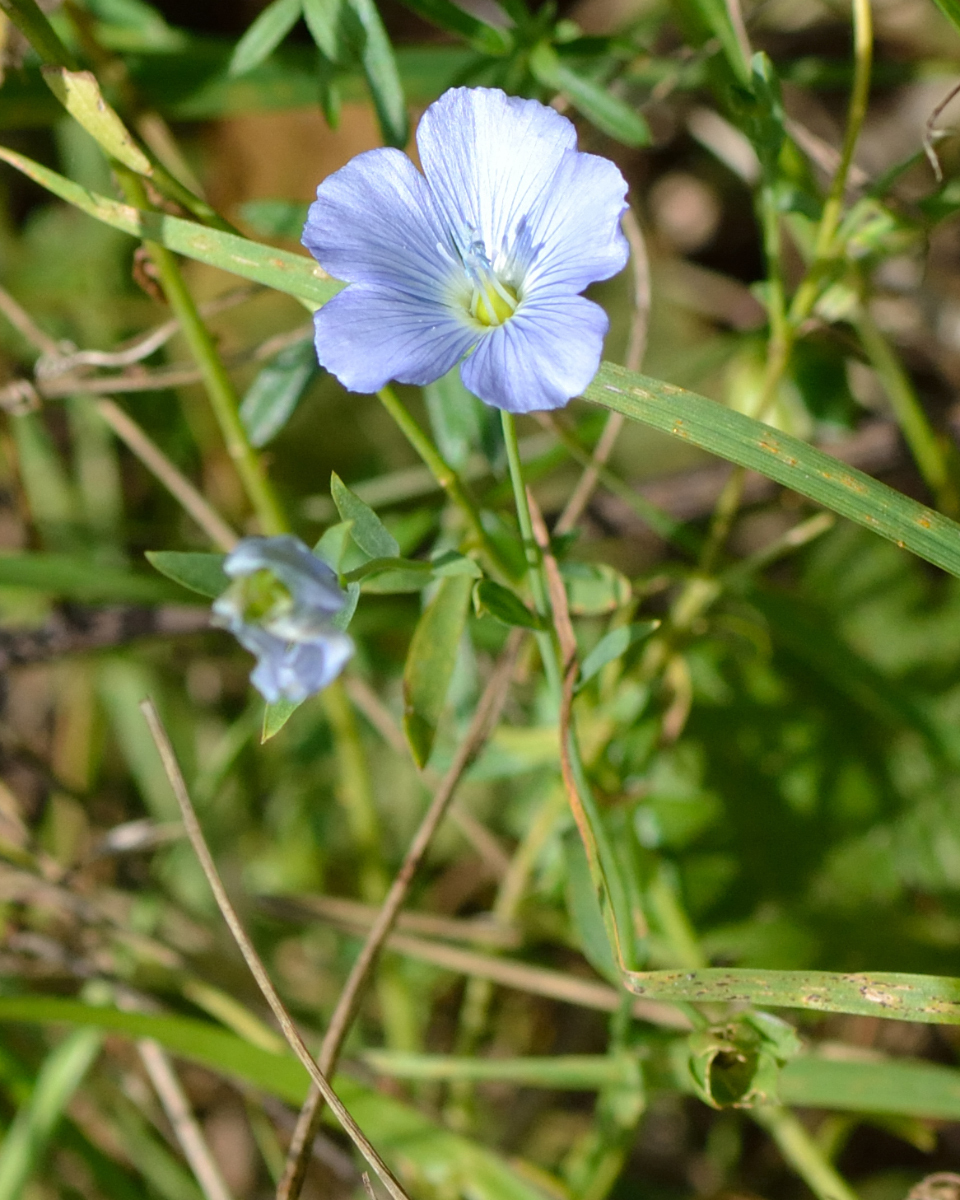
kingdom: Plantae
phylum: Tracheophyta
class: Magnoliopsida
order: Malpighiales
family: Linaceae
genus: Linum
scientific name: Linum usitatissimum
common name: Flax
